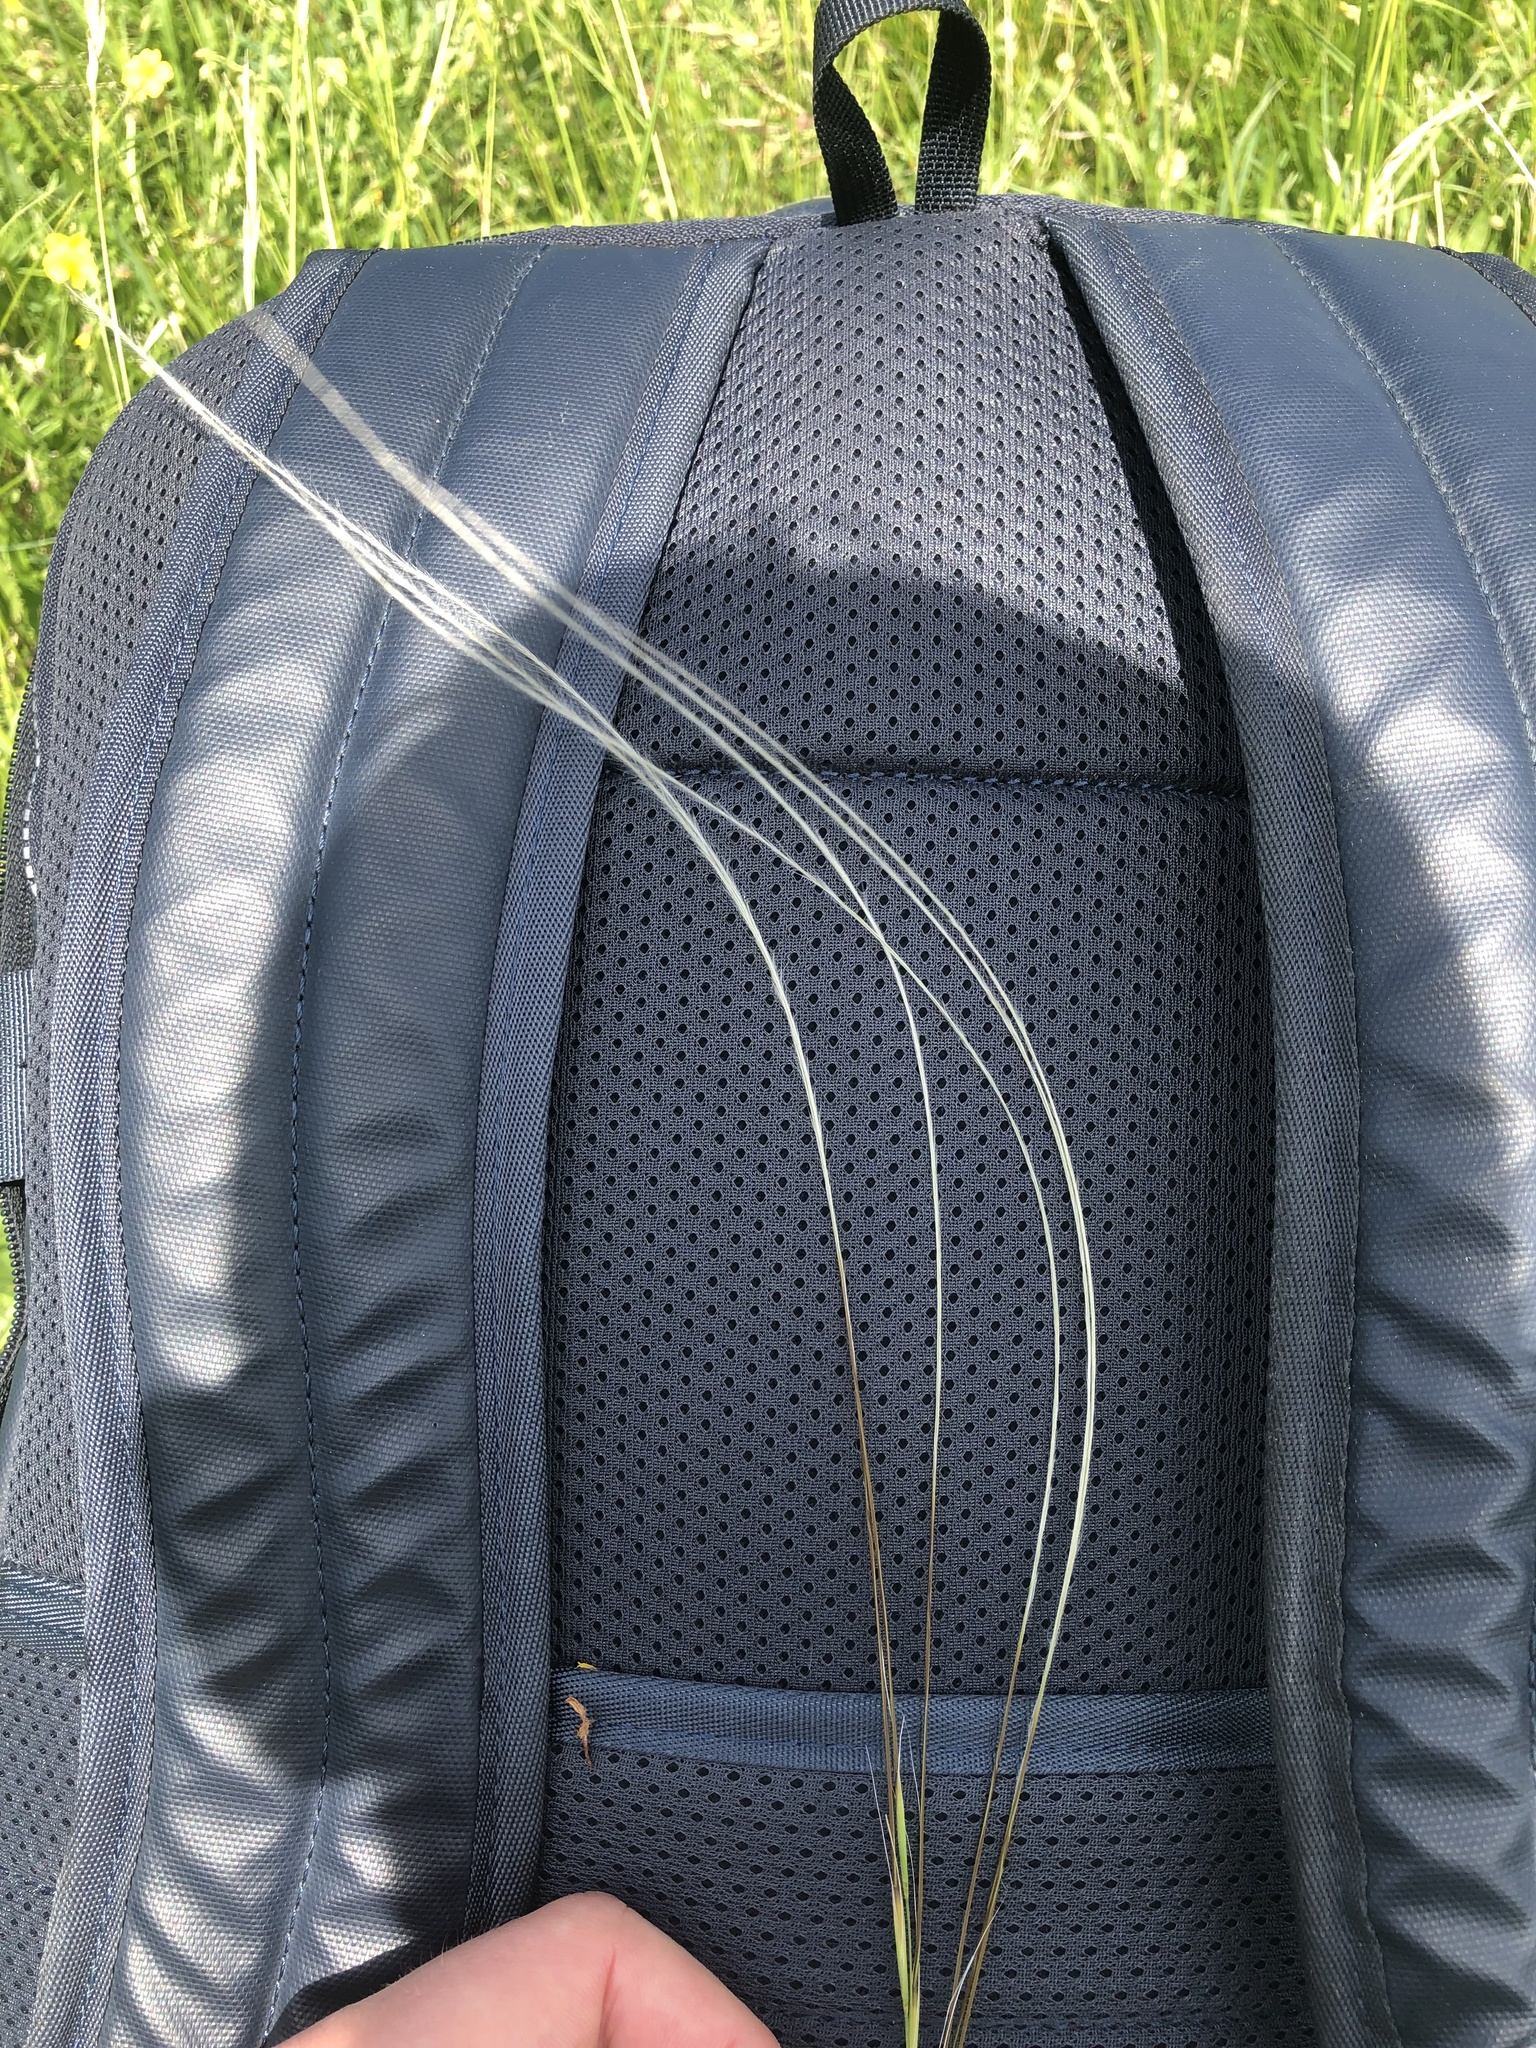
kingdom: Plantae
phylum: Tracheophyta
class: Liliopsida
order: Poales
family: Poaceae
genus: Stipa
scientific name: Stipa pennata
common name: European feather grass
